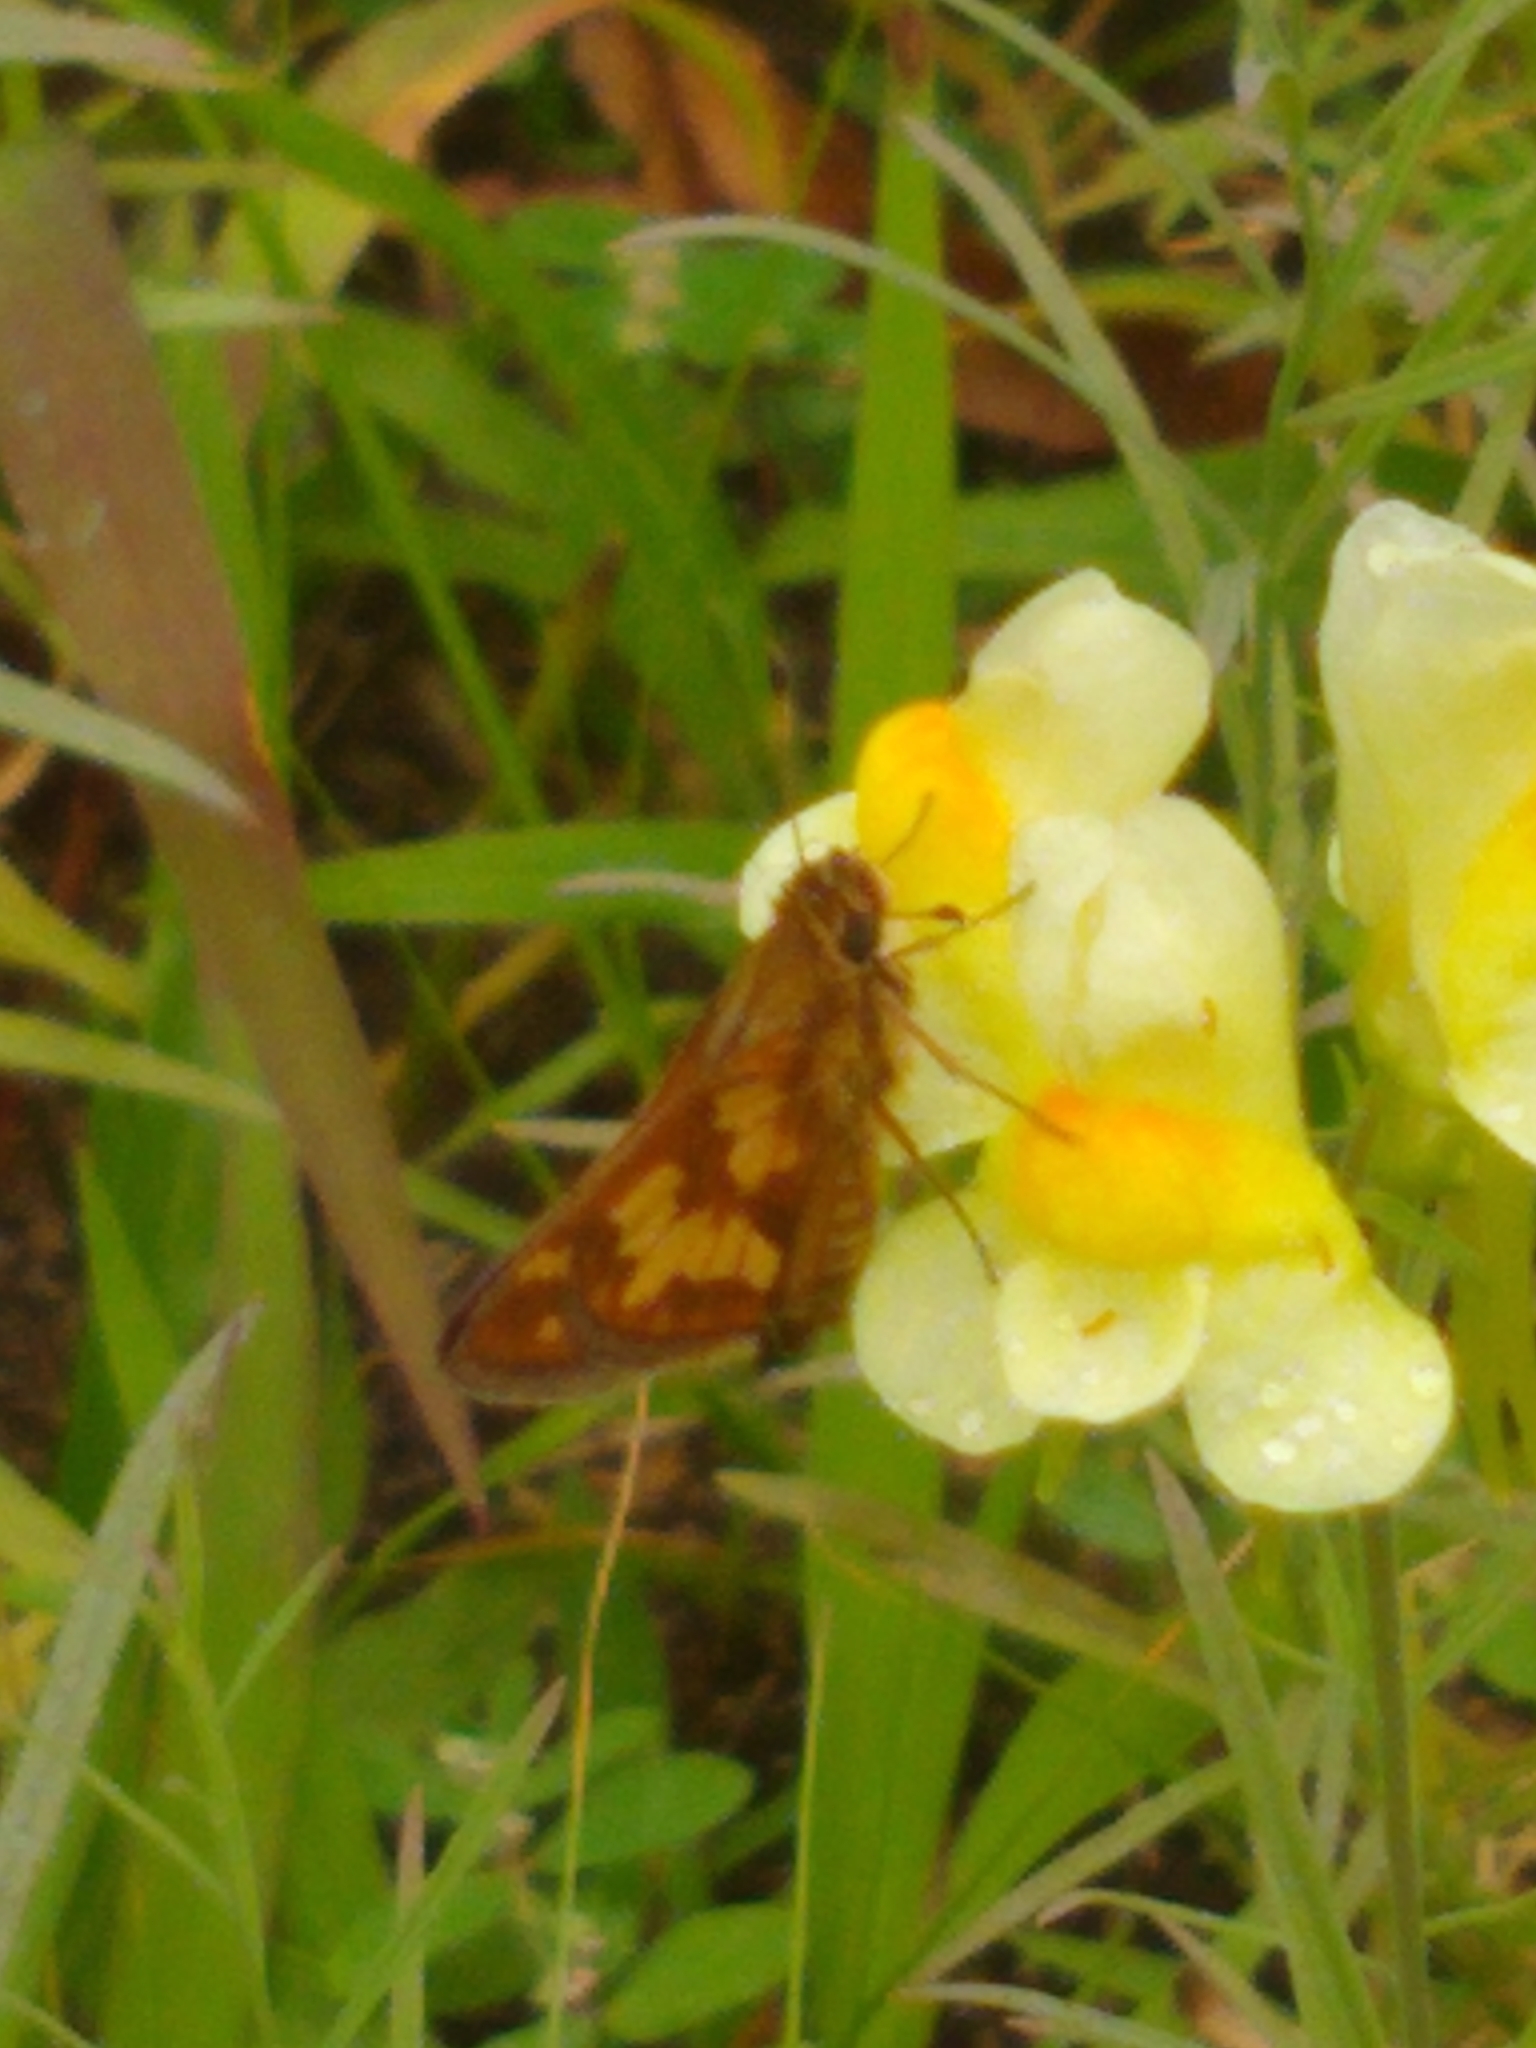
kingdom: Animalia
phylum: Arthropoda
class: Insecta
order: Lepidoptera
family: Hesperiidae
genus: Polites
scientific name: Polites coras
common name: Peck's skipper
